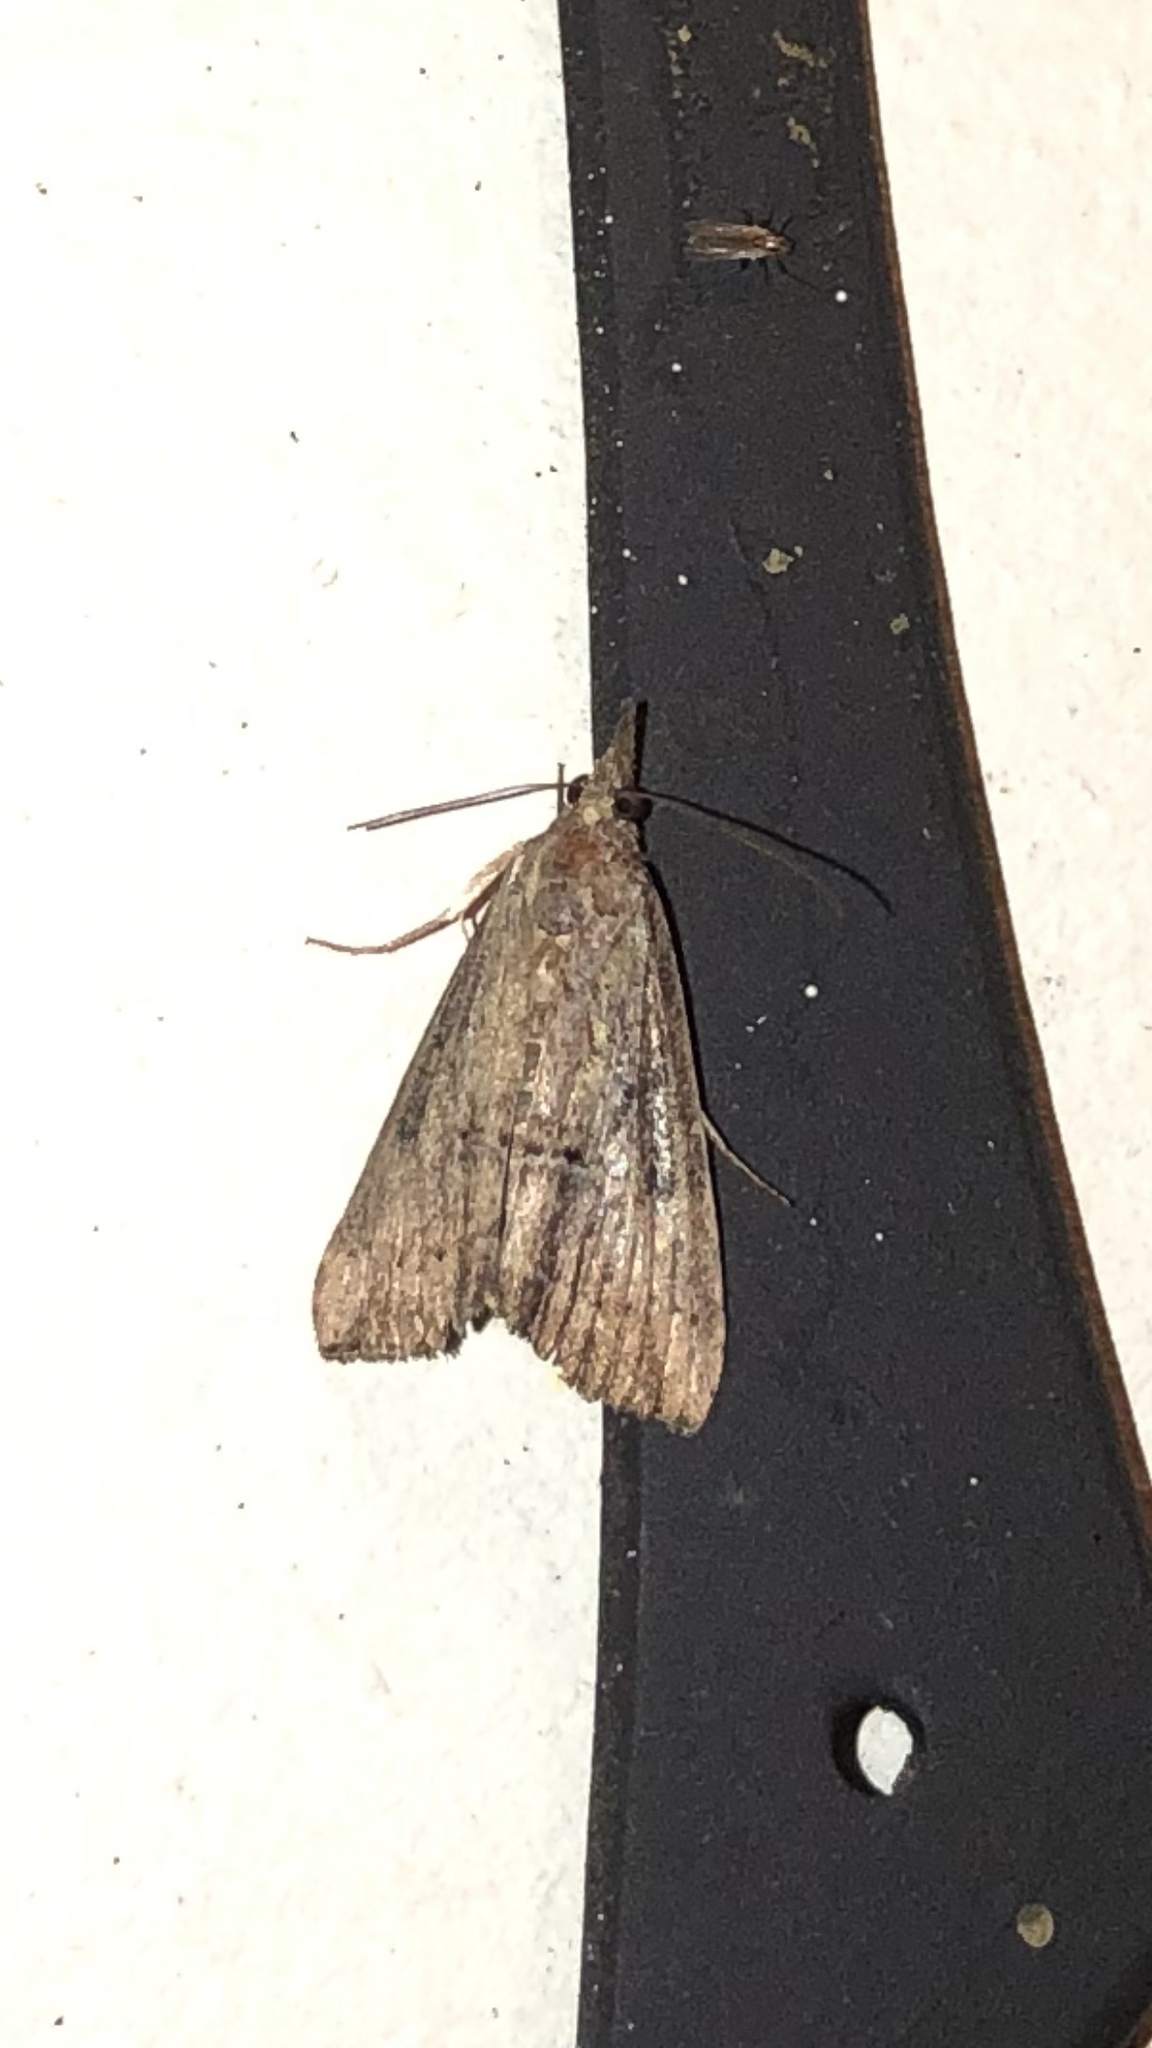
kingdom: Animalia
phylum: Arthropoda
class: Insecta
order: Lepidoptera
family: Erebidae
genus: Hypena
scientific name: Hypena scabra
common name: Green cloverworm
